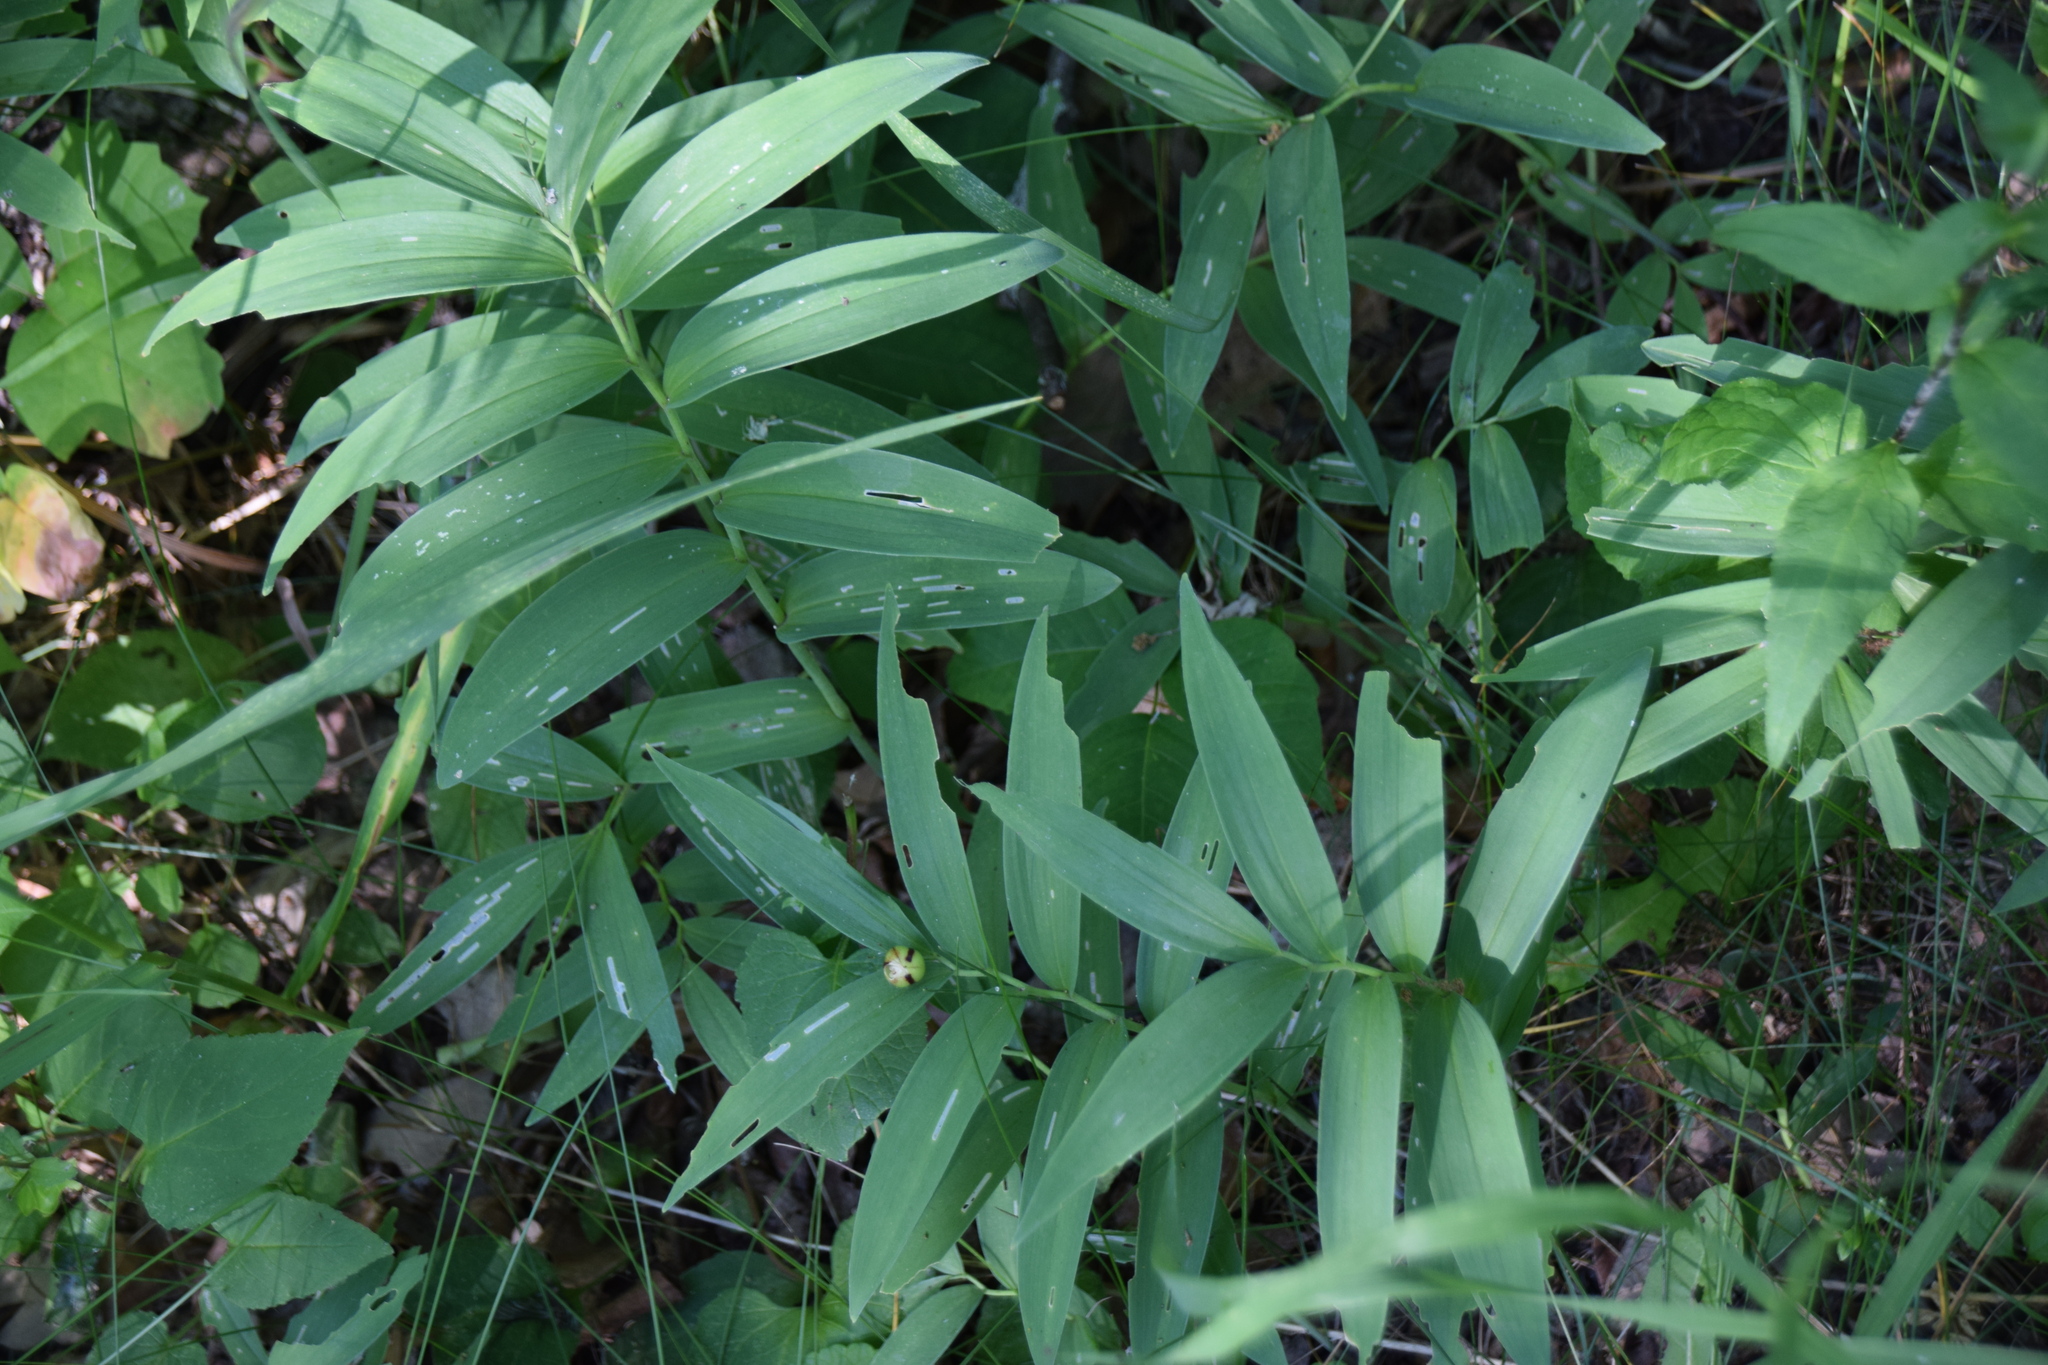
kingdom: Plantae
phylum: Tracheophyta
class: Liliopsida
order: Asparagales
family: Asparagaceae
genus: Maianthemum
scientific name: Maianthemum stellatum
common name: Little false solomon's seal
